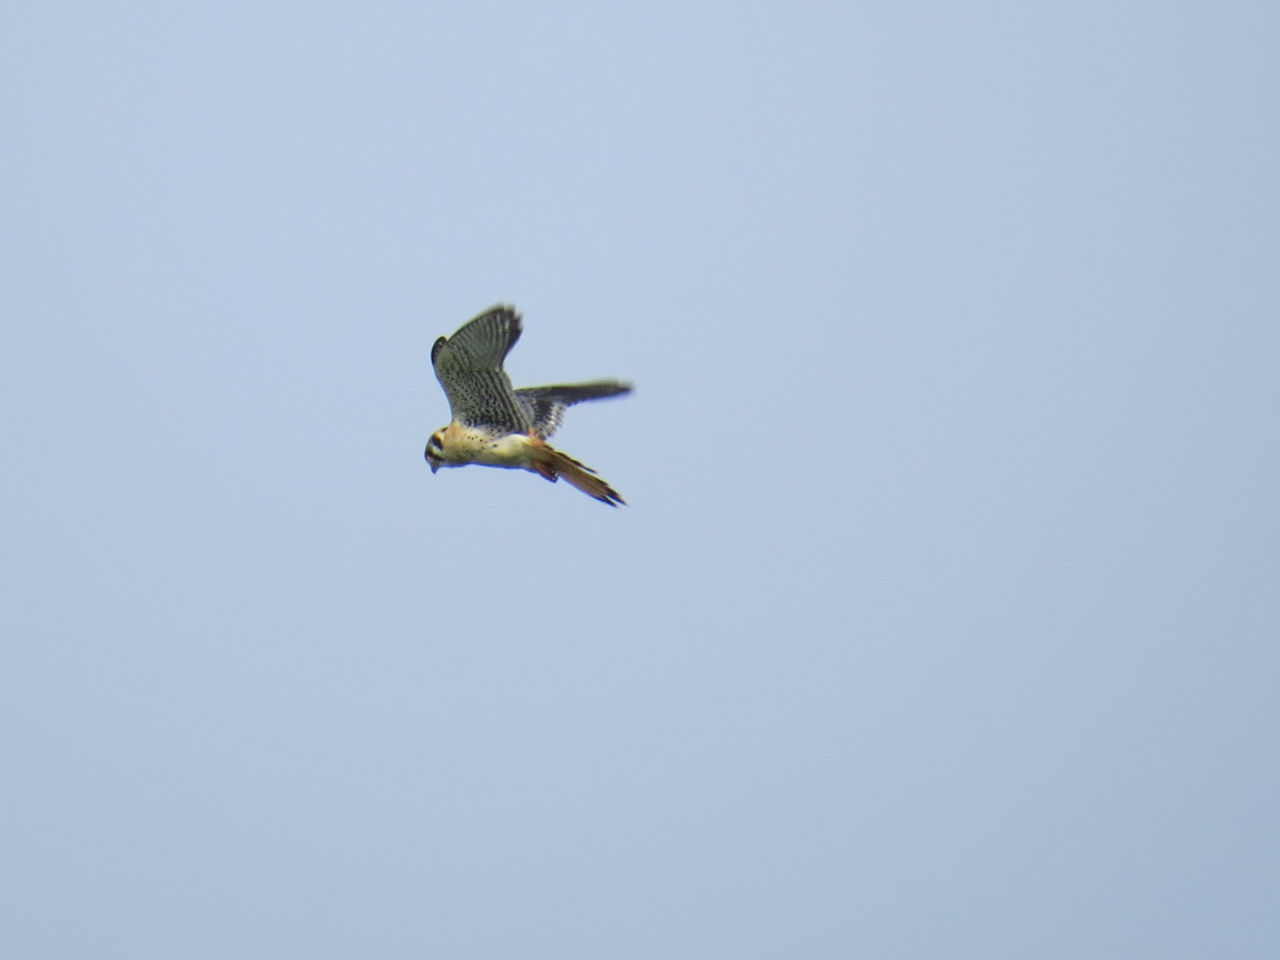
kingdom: Animalia
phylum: Chordata
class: Aves
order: Falconiformes
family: Falconidae
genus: Falco
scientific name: Falco sparverius
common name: American kestrel
